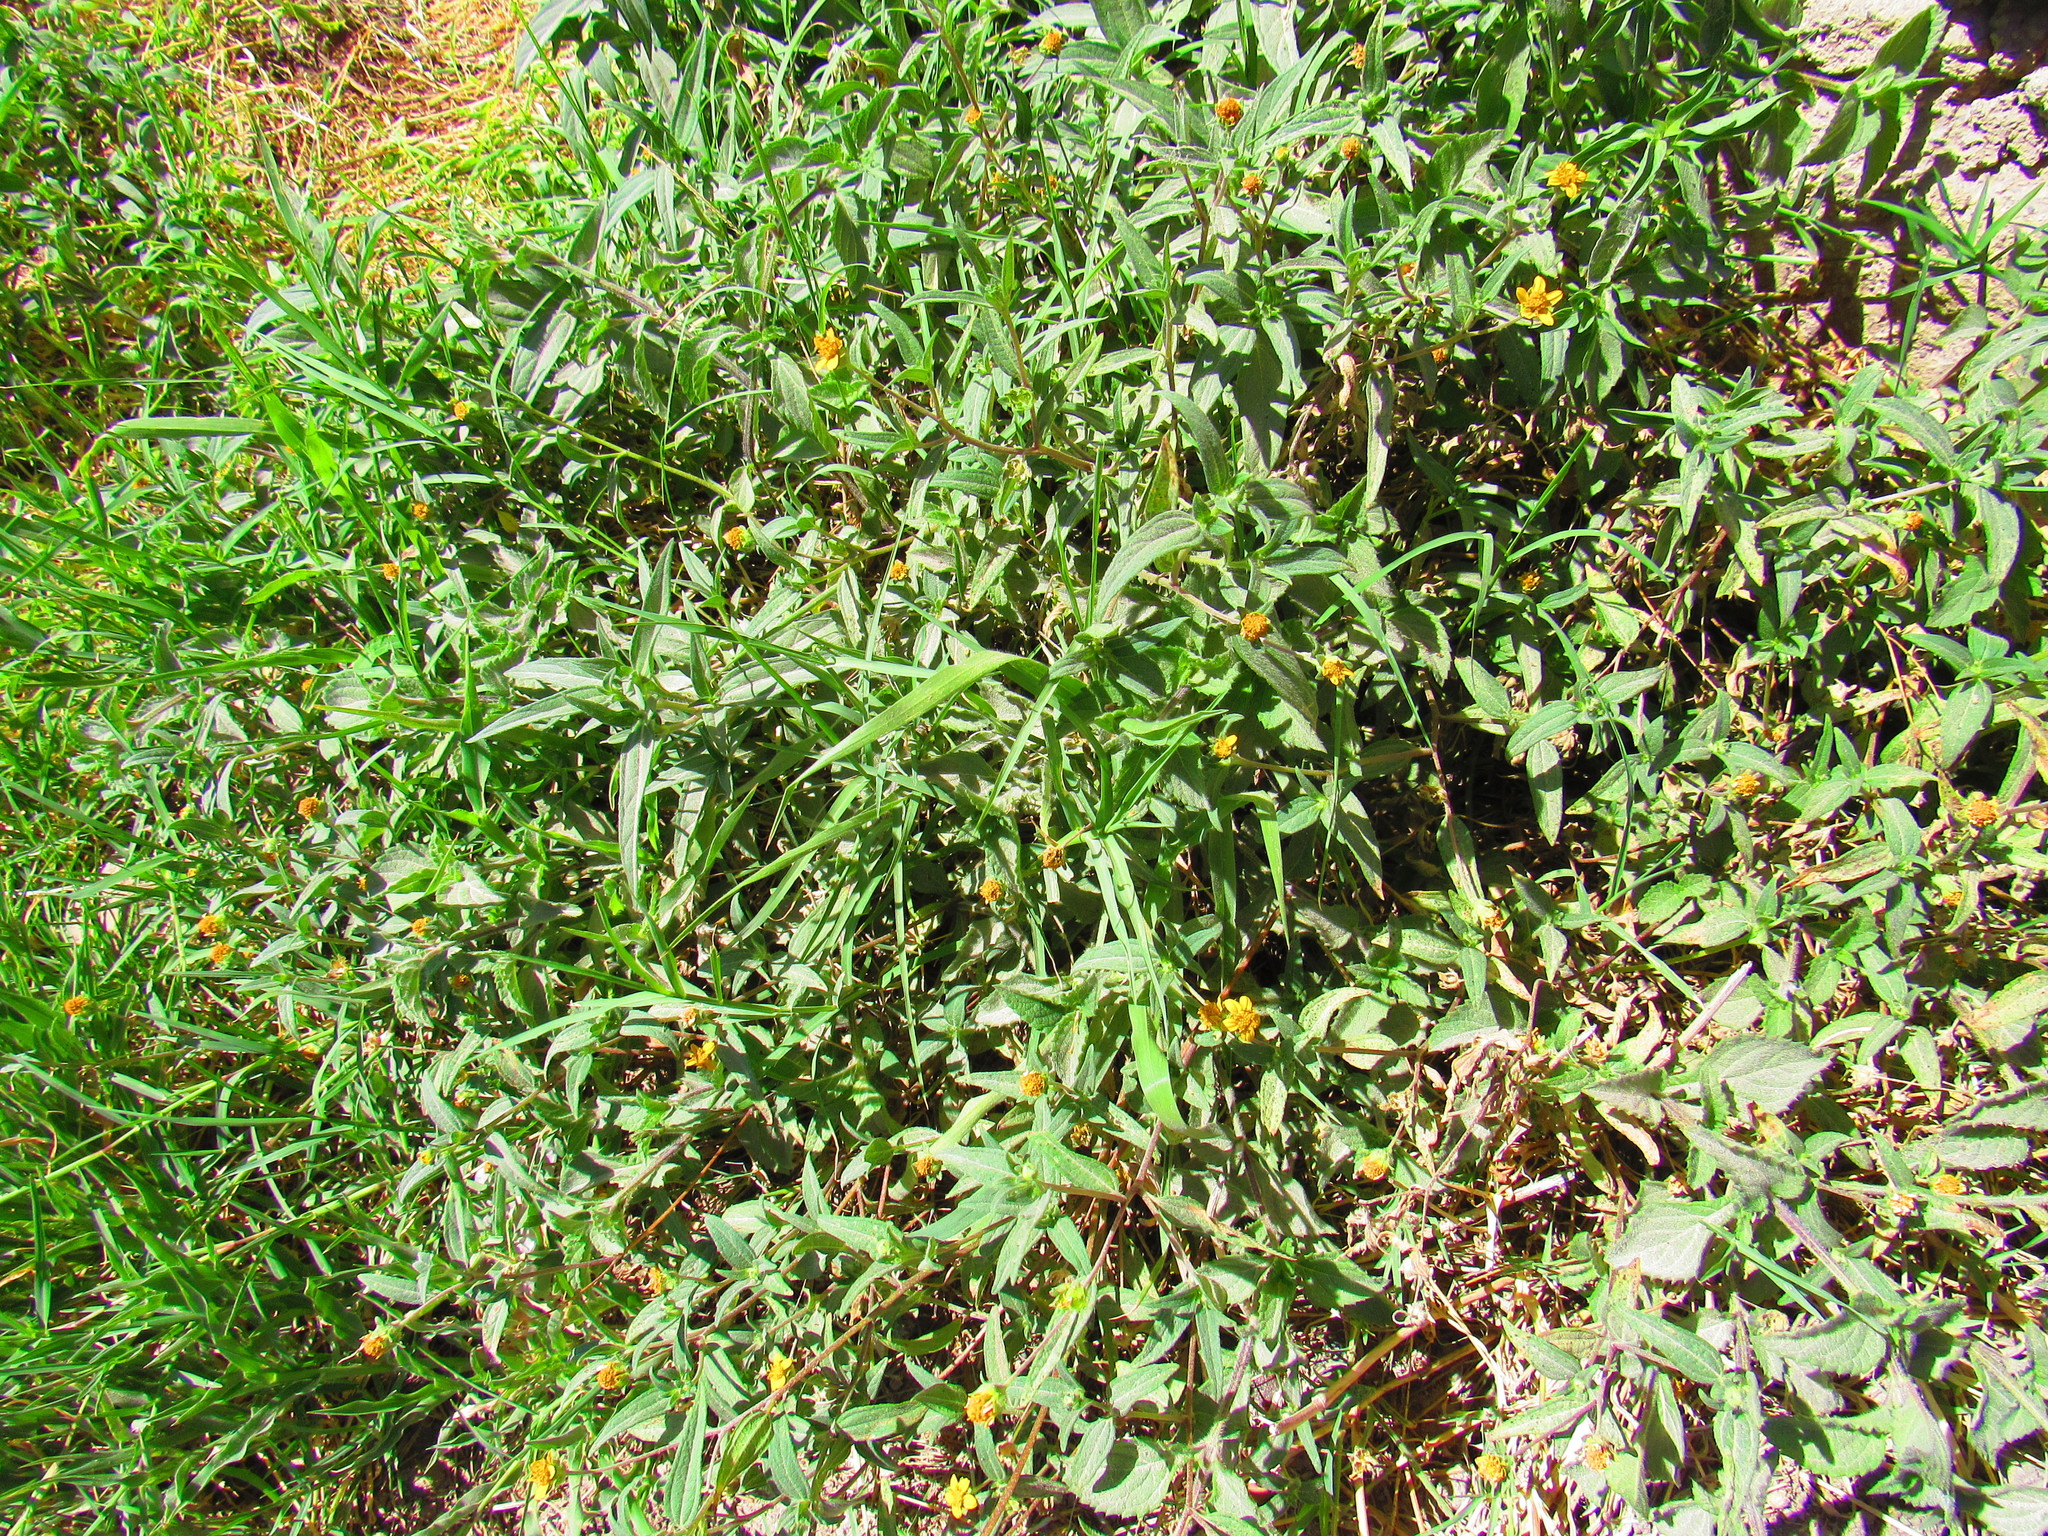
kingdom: Plantae
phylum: Tracheophyta
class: Magnoliopsida
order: Asterales
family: Asteraceae
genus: Aldama
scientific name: Aldama dentata
